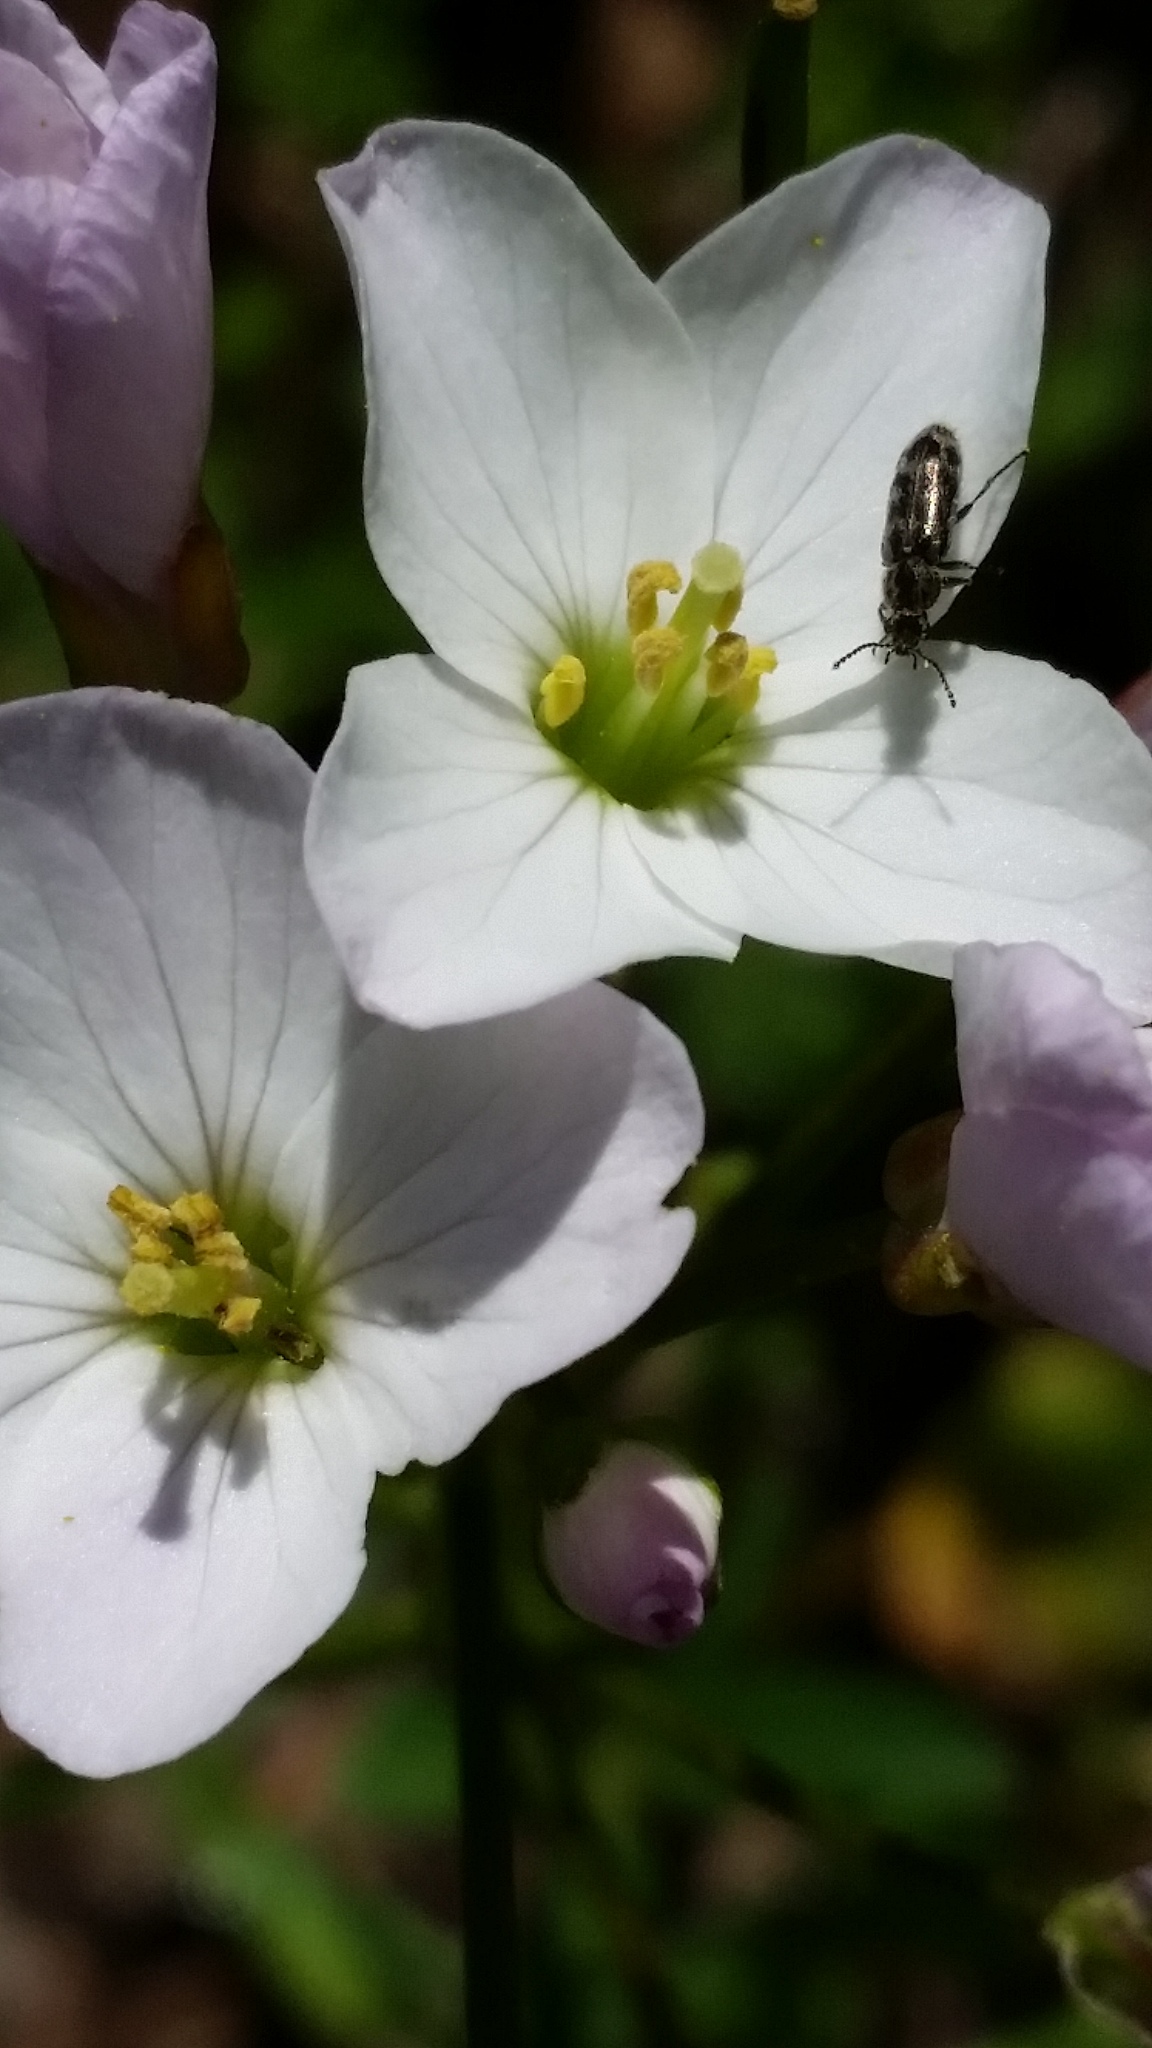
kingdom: Plantae
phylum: Tracheophyta
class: Magnoliopsida
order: Brassicales
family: Brassicaceae
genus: Cardamine
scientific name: Cardamine californica
